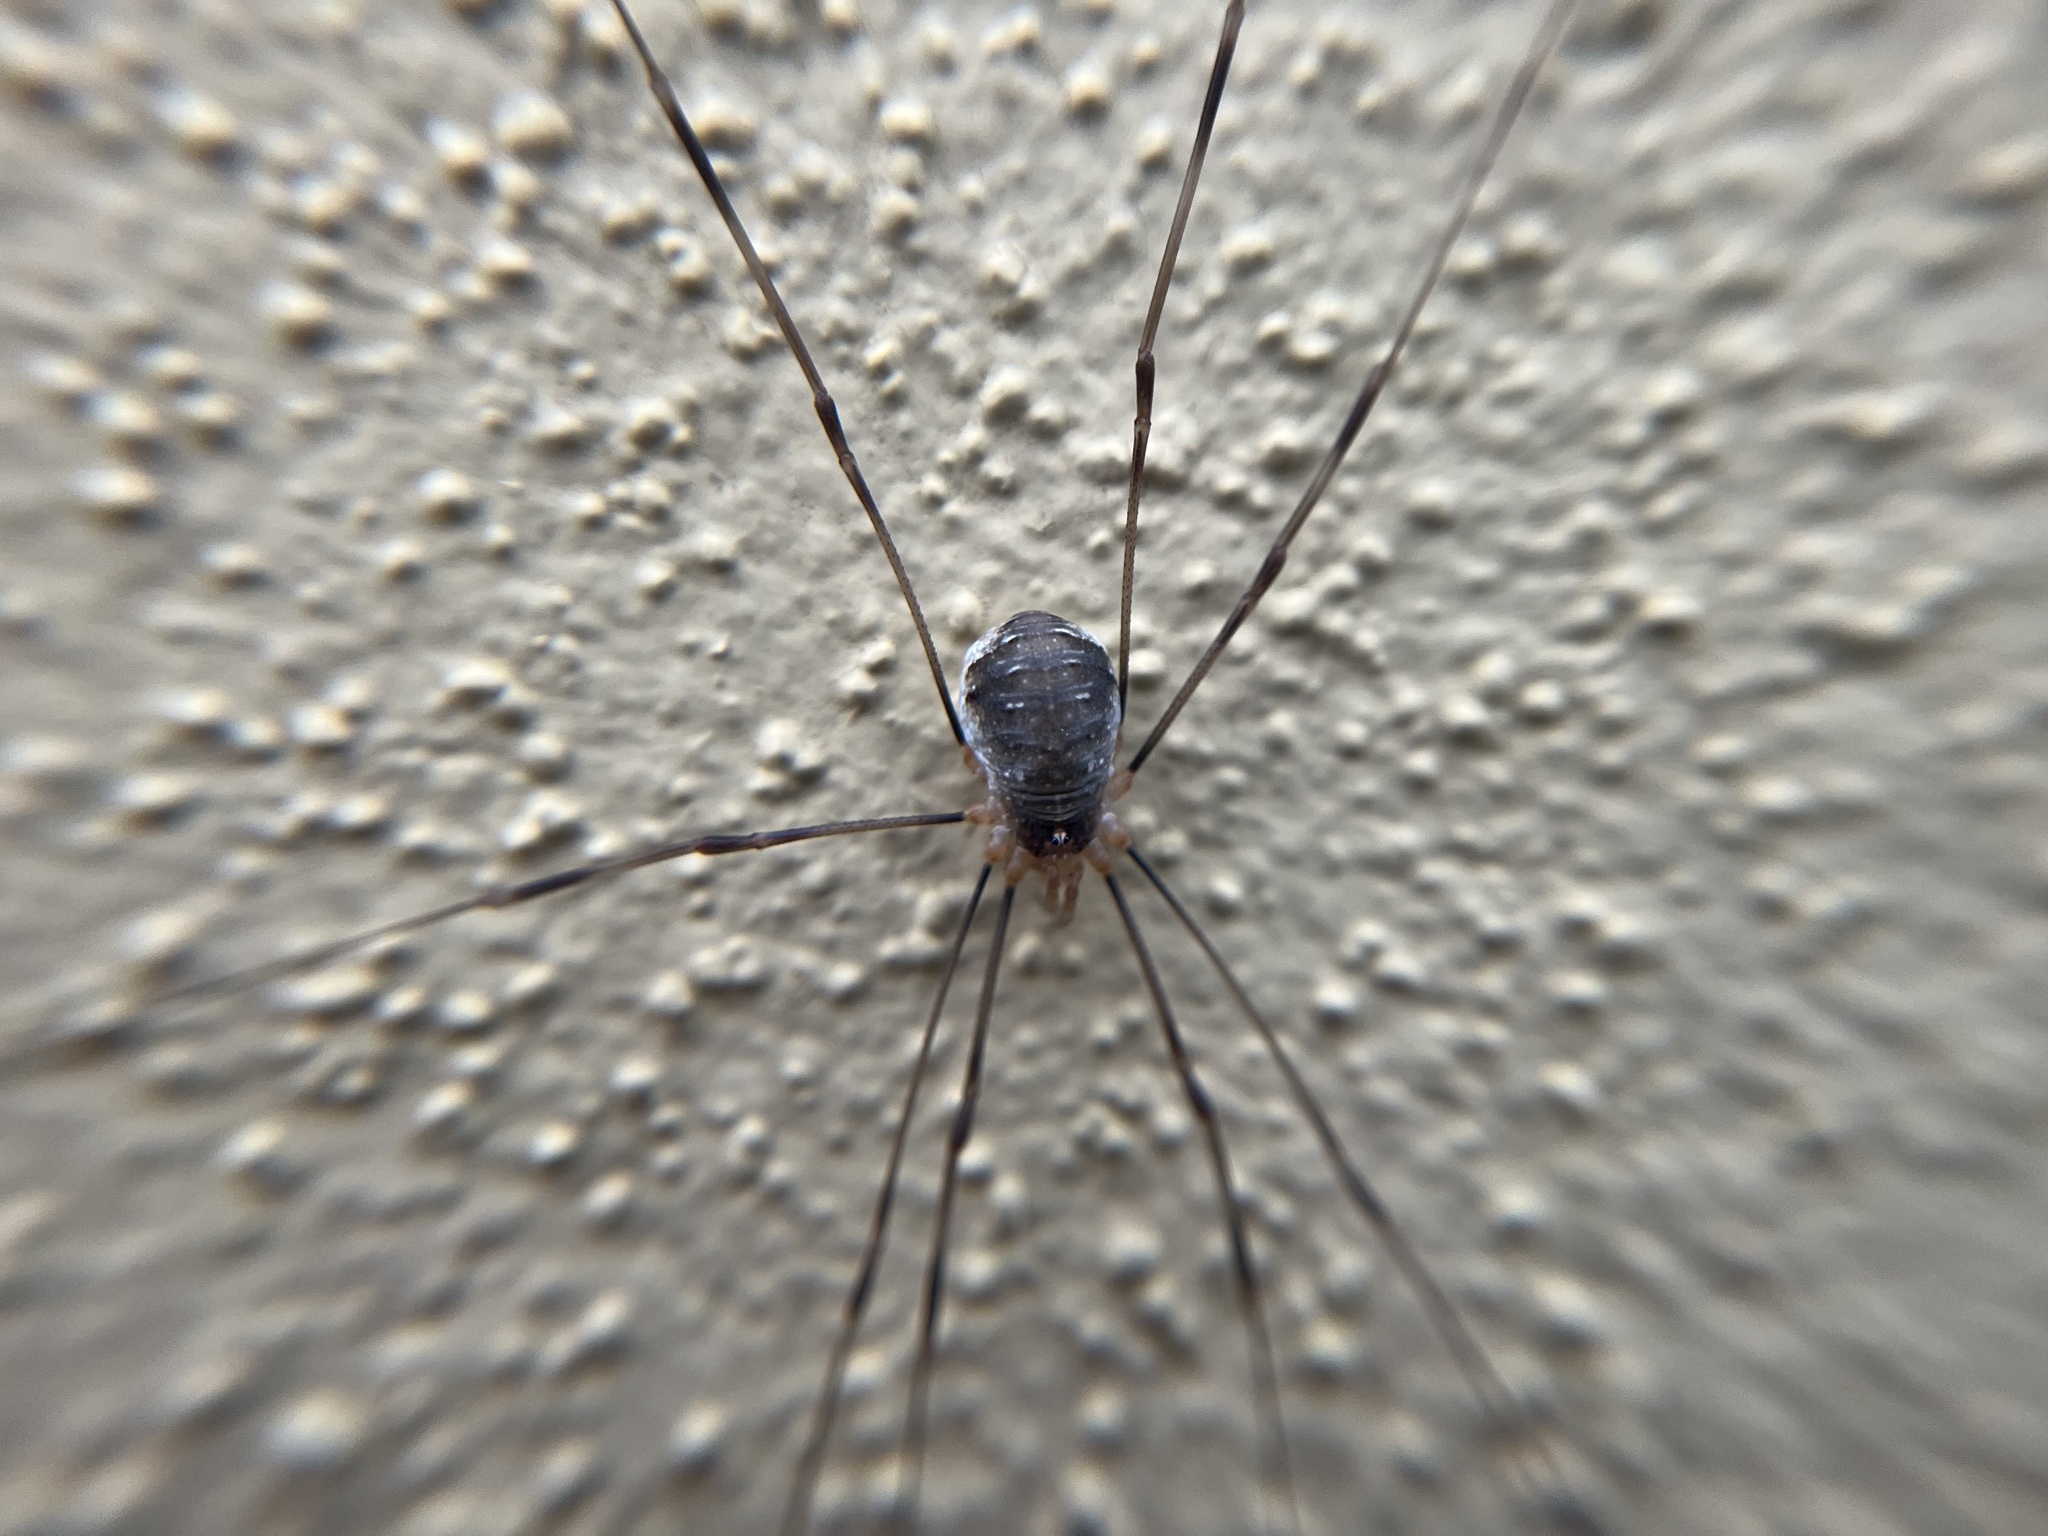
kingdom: Animalia
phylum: Arthropoda
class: Arachnida
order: Opiliones
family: Phalangiidae
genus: Opilio
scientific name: Opilio canestrinii
